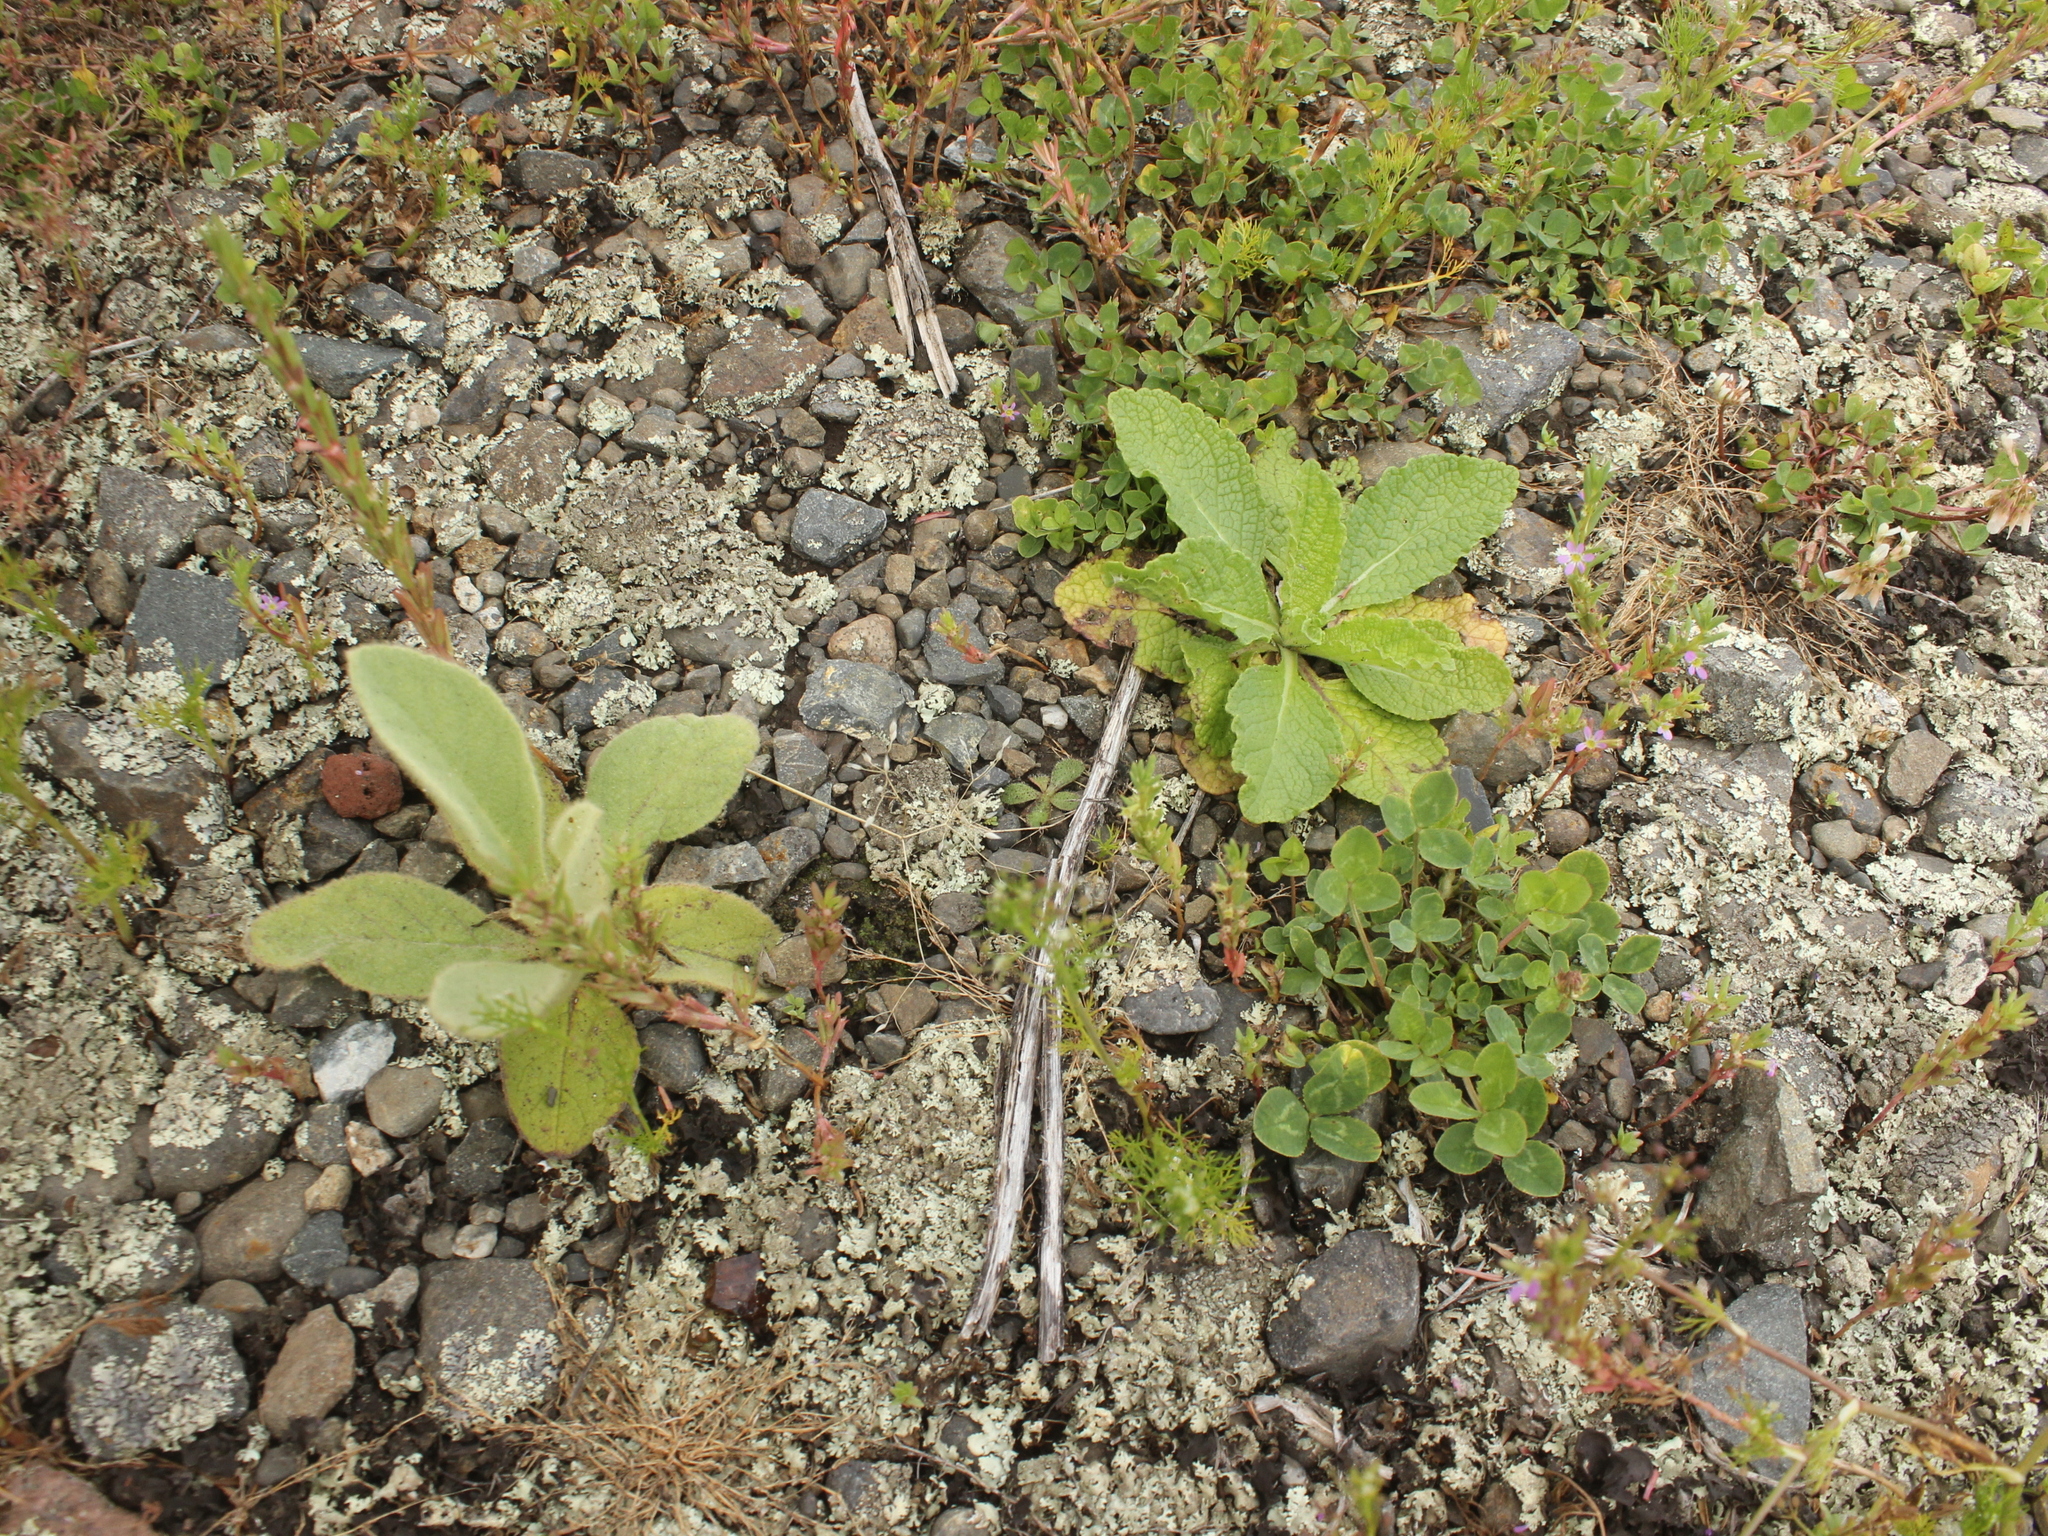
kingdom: Plantae
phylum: Tracheophyta
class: Magnoliopsida
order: Lamiales
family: Scrophulariaceae
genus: Verbascum
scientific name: Verbascum virgatum
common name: Twiggy mullein
